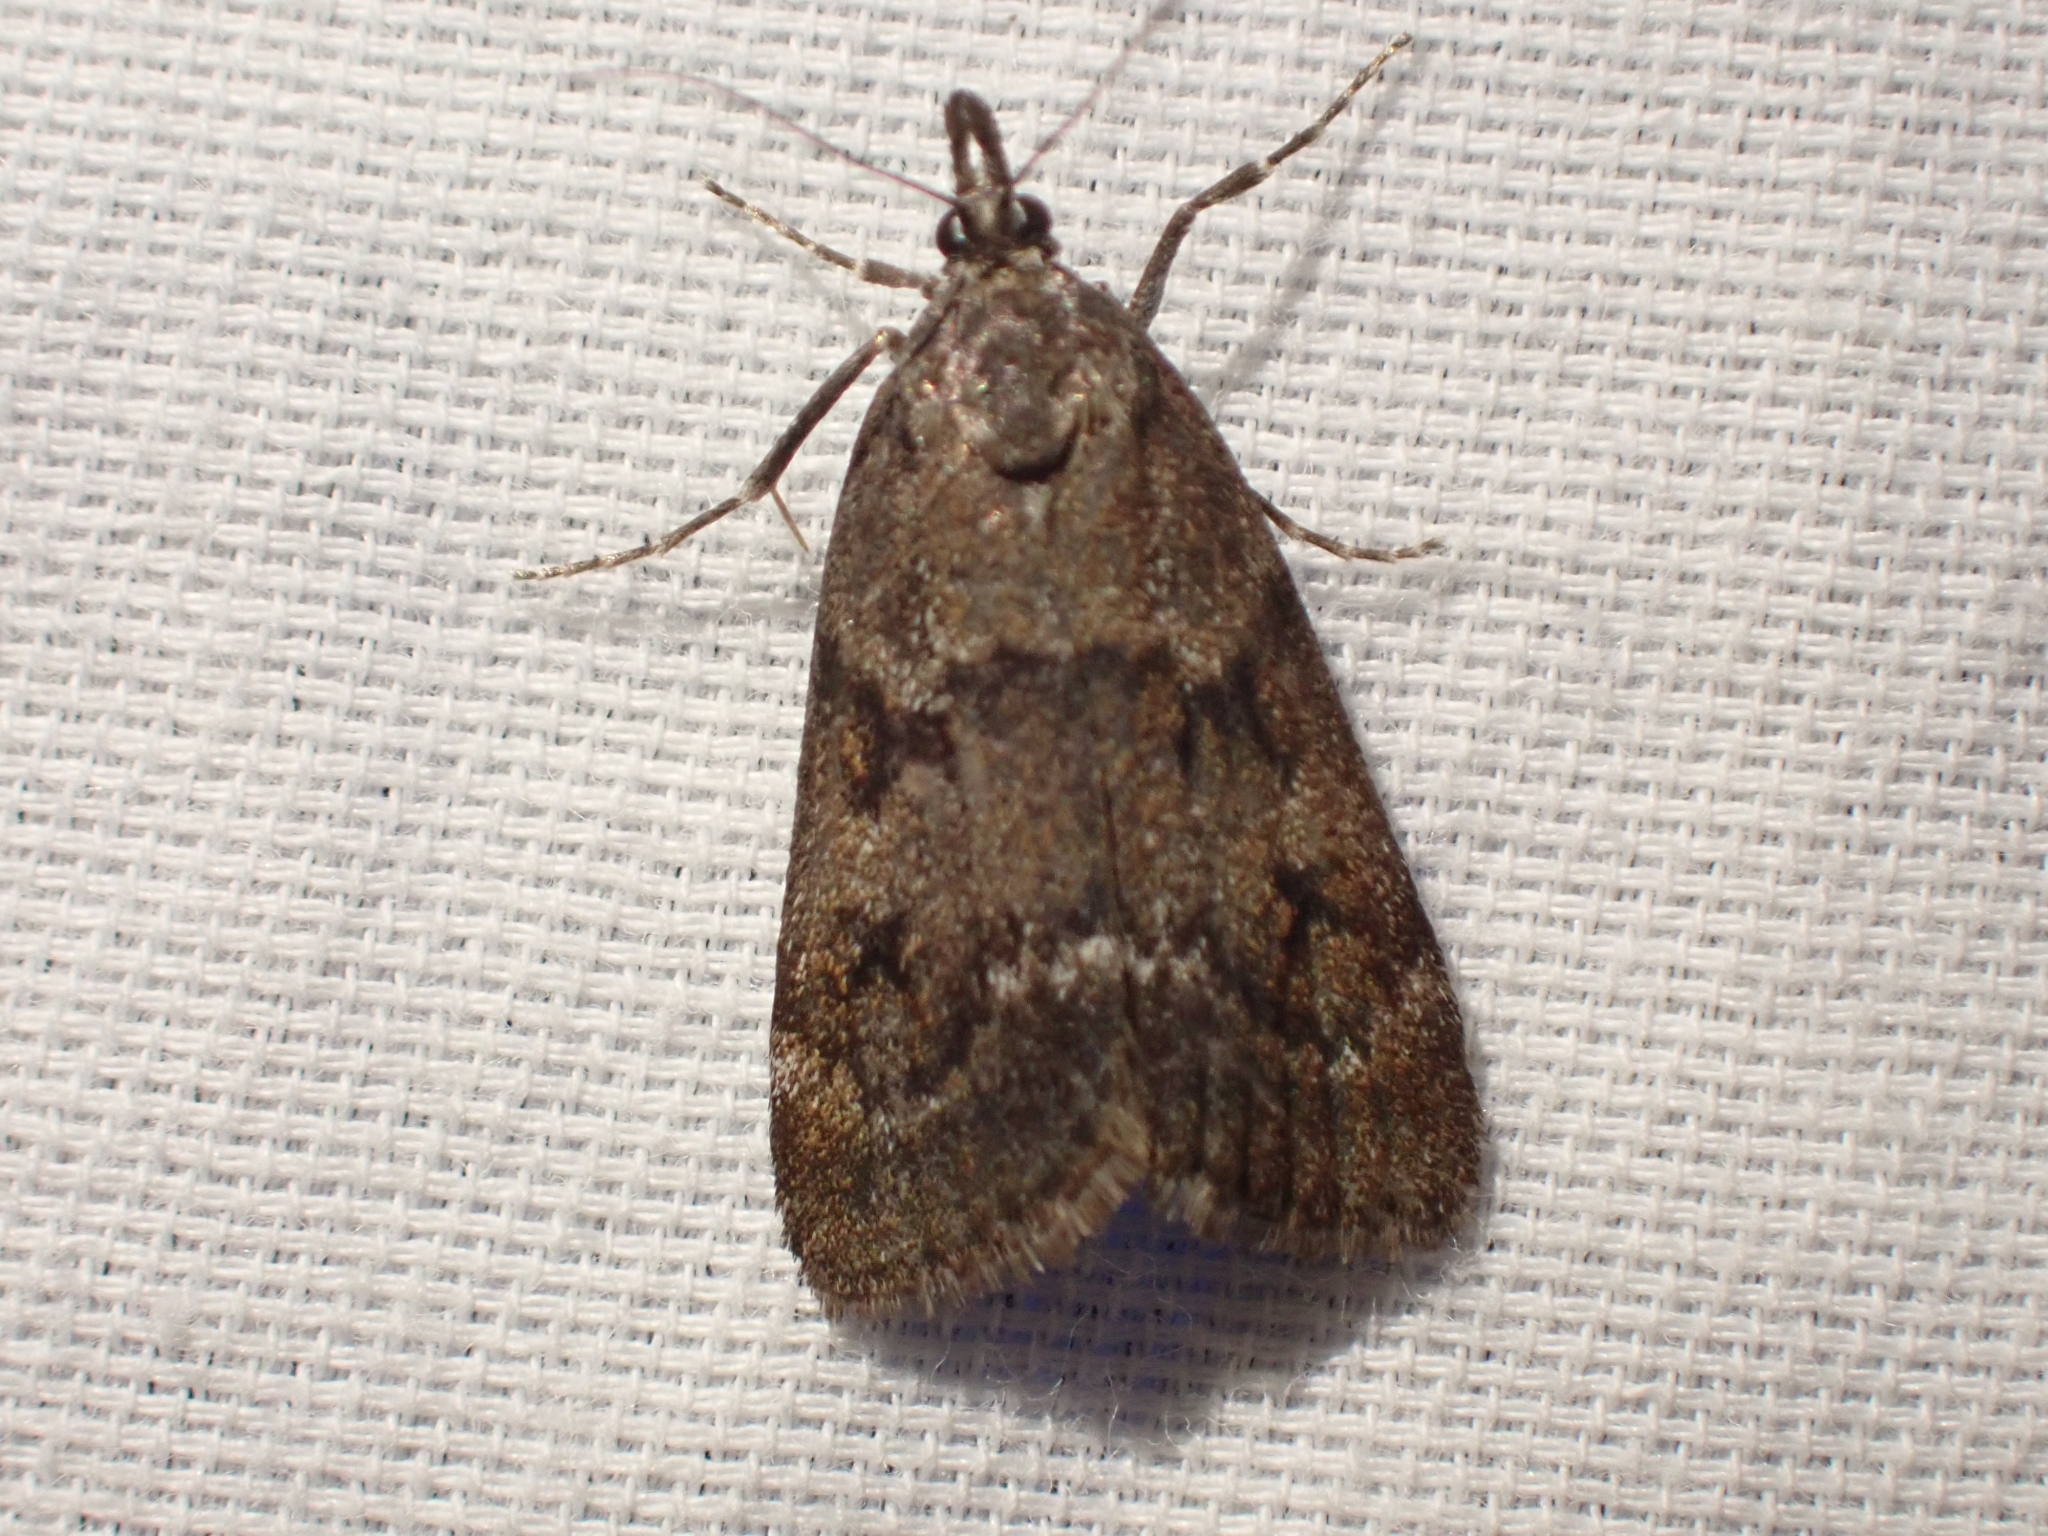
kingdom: Animalia
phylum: Arthropoda
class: Insecta
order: Lepidoptera
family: Crambidae
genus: Gesneria
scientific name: Gesneria centuriella
